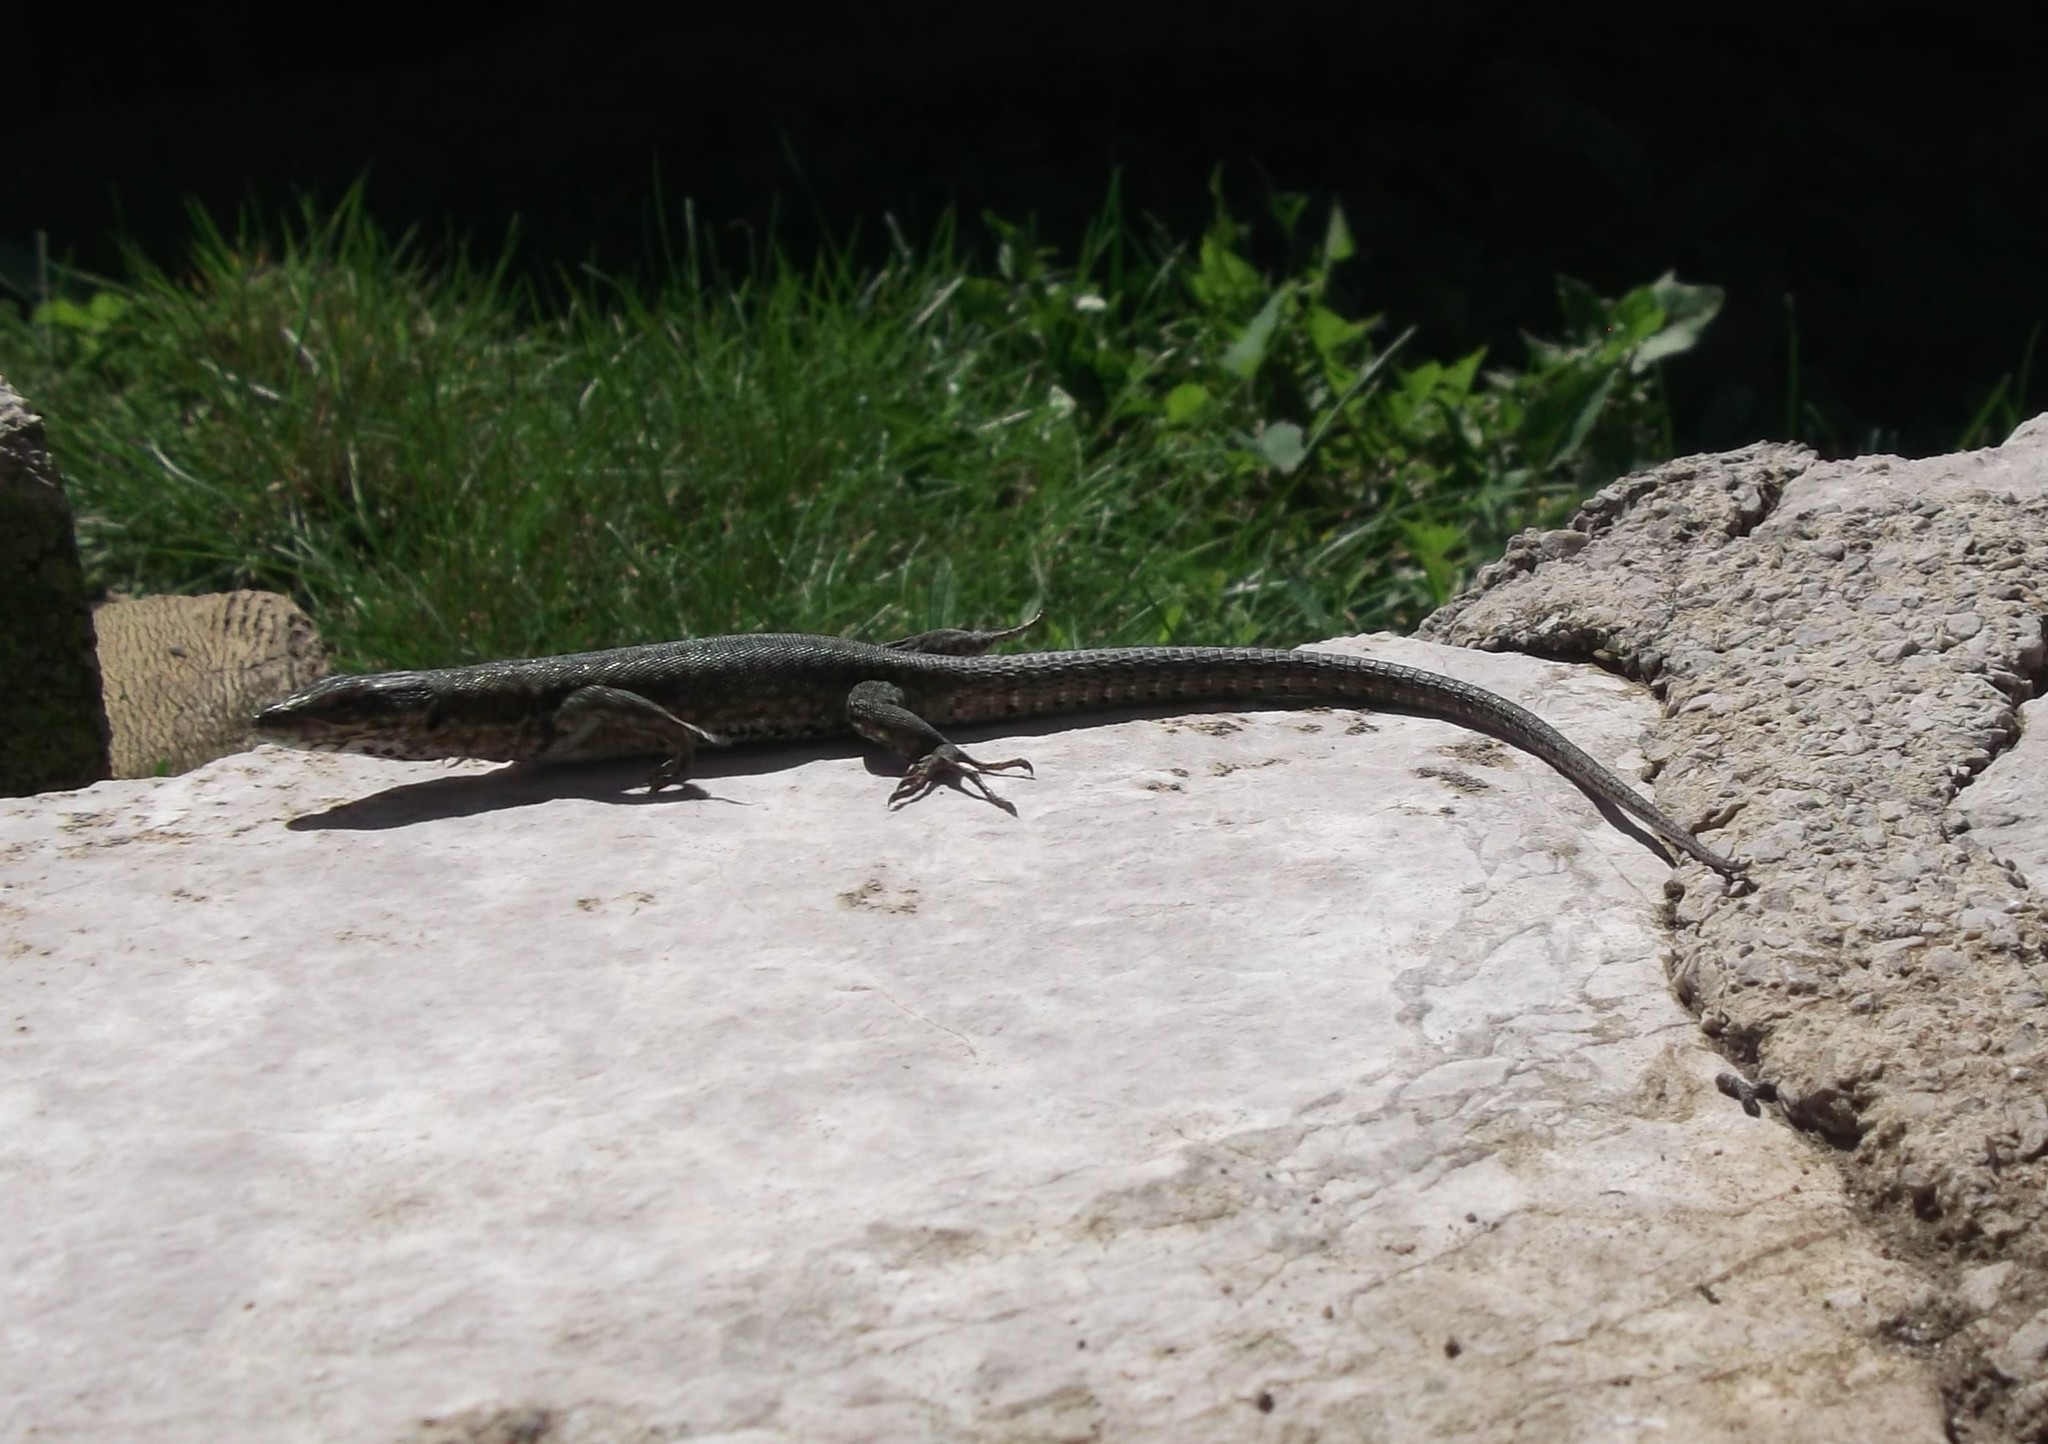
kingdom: Animalia
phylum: Chordata
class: Squamata
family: Lacertidae
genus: Podarcis
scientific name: Podarcis muralis
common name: Common wall lizard
